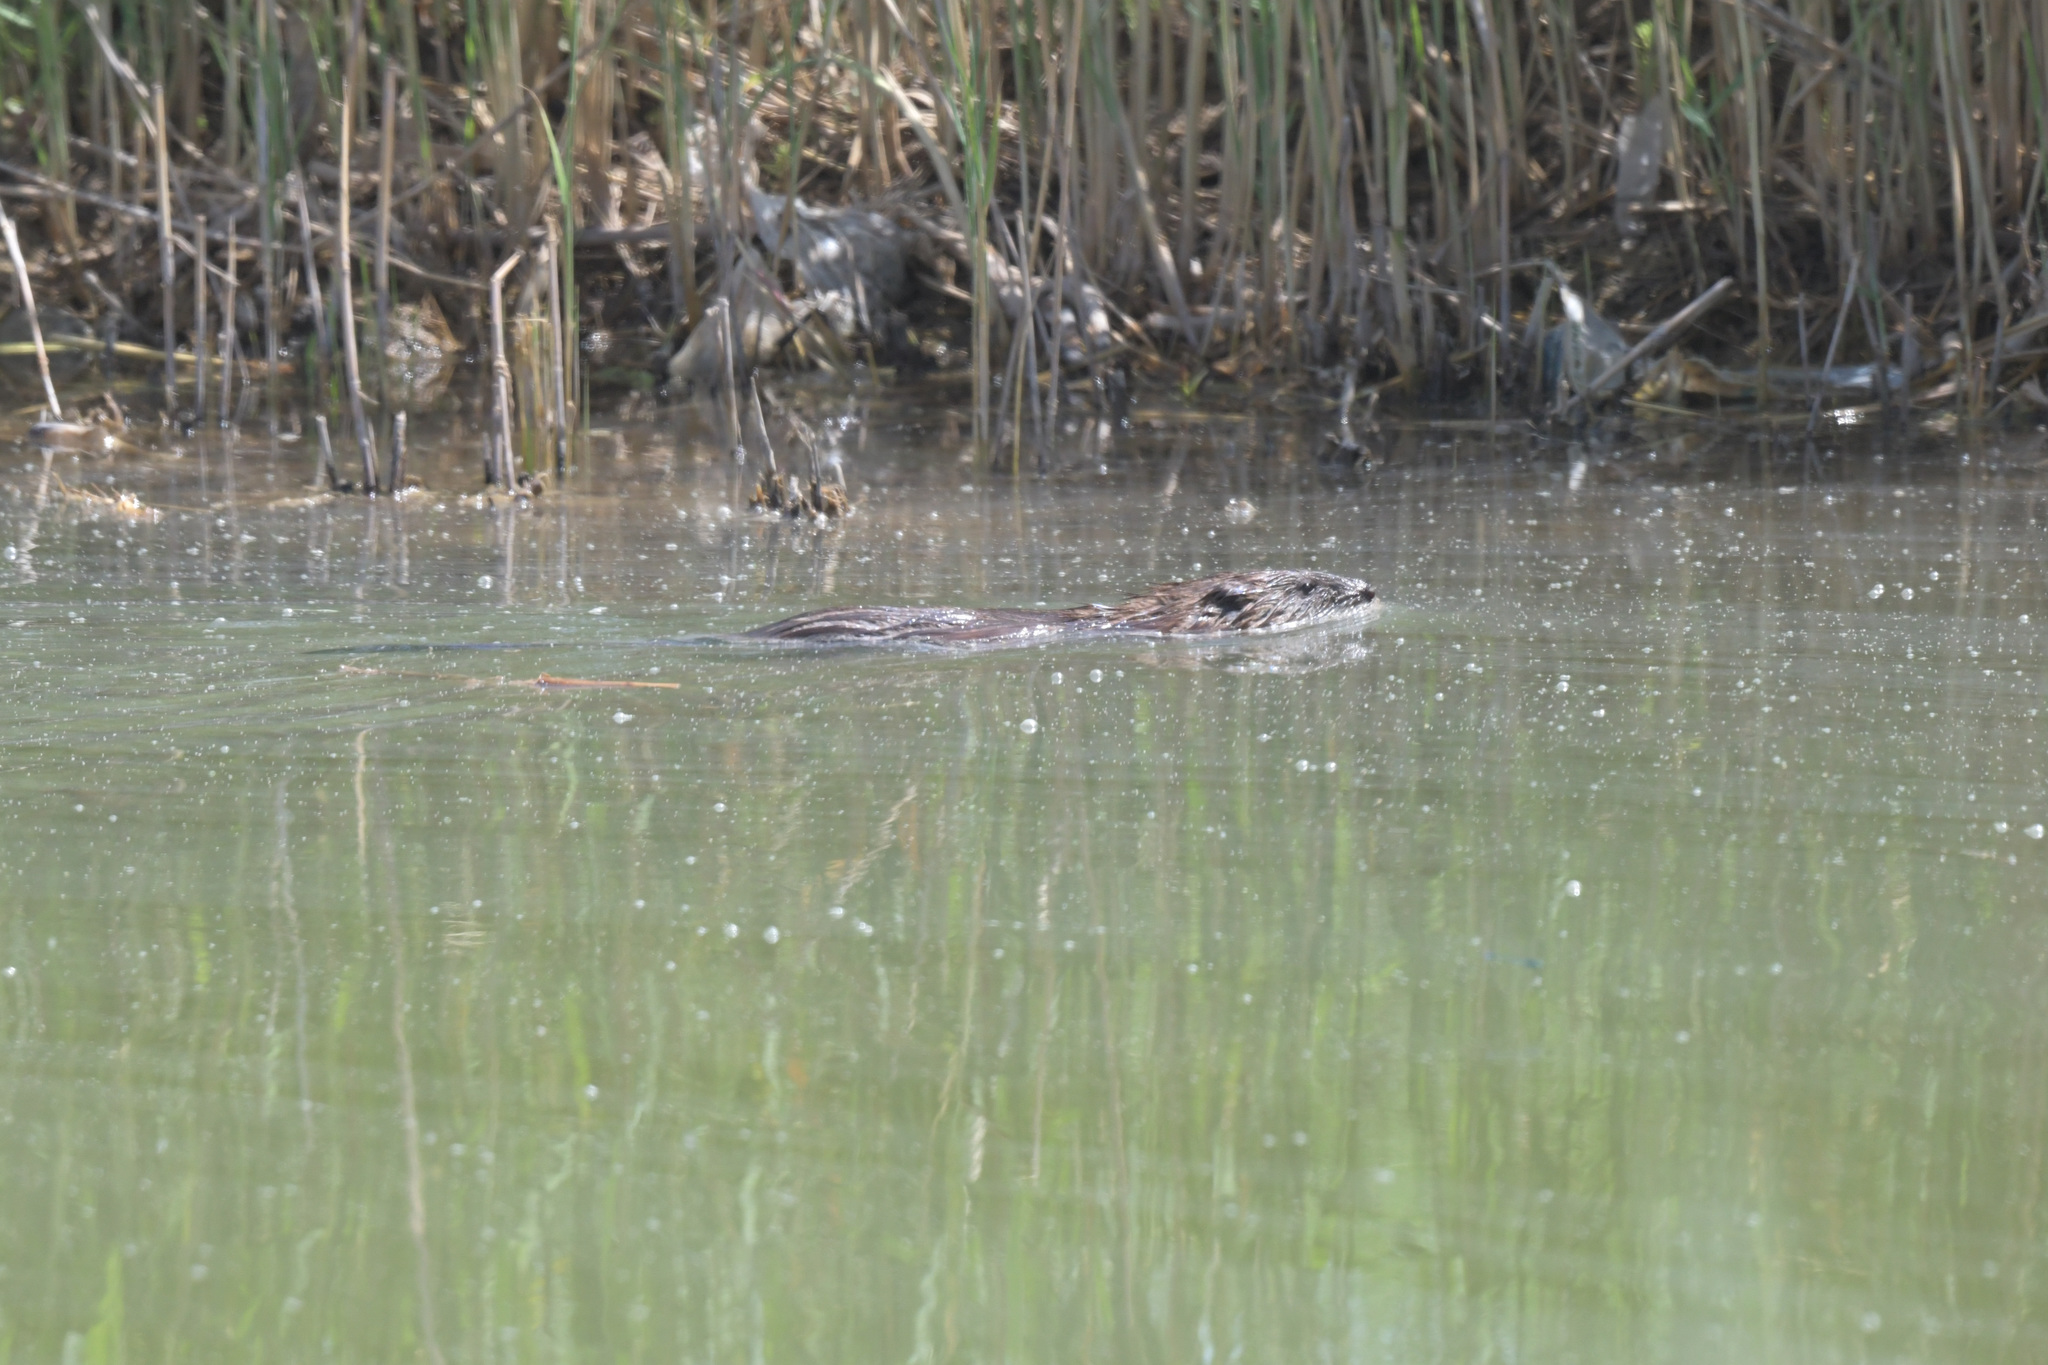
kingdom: Animalia
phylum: Chordata
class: Mammalia
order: Rodentia
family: Cricetidae
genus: Ondatra
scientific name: Ondatra zibethicus
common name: Muskrat
